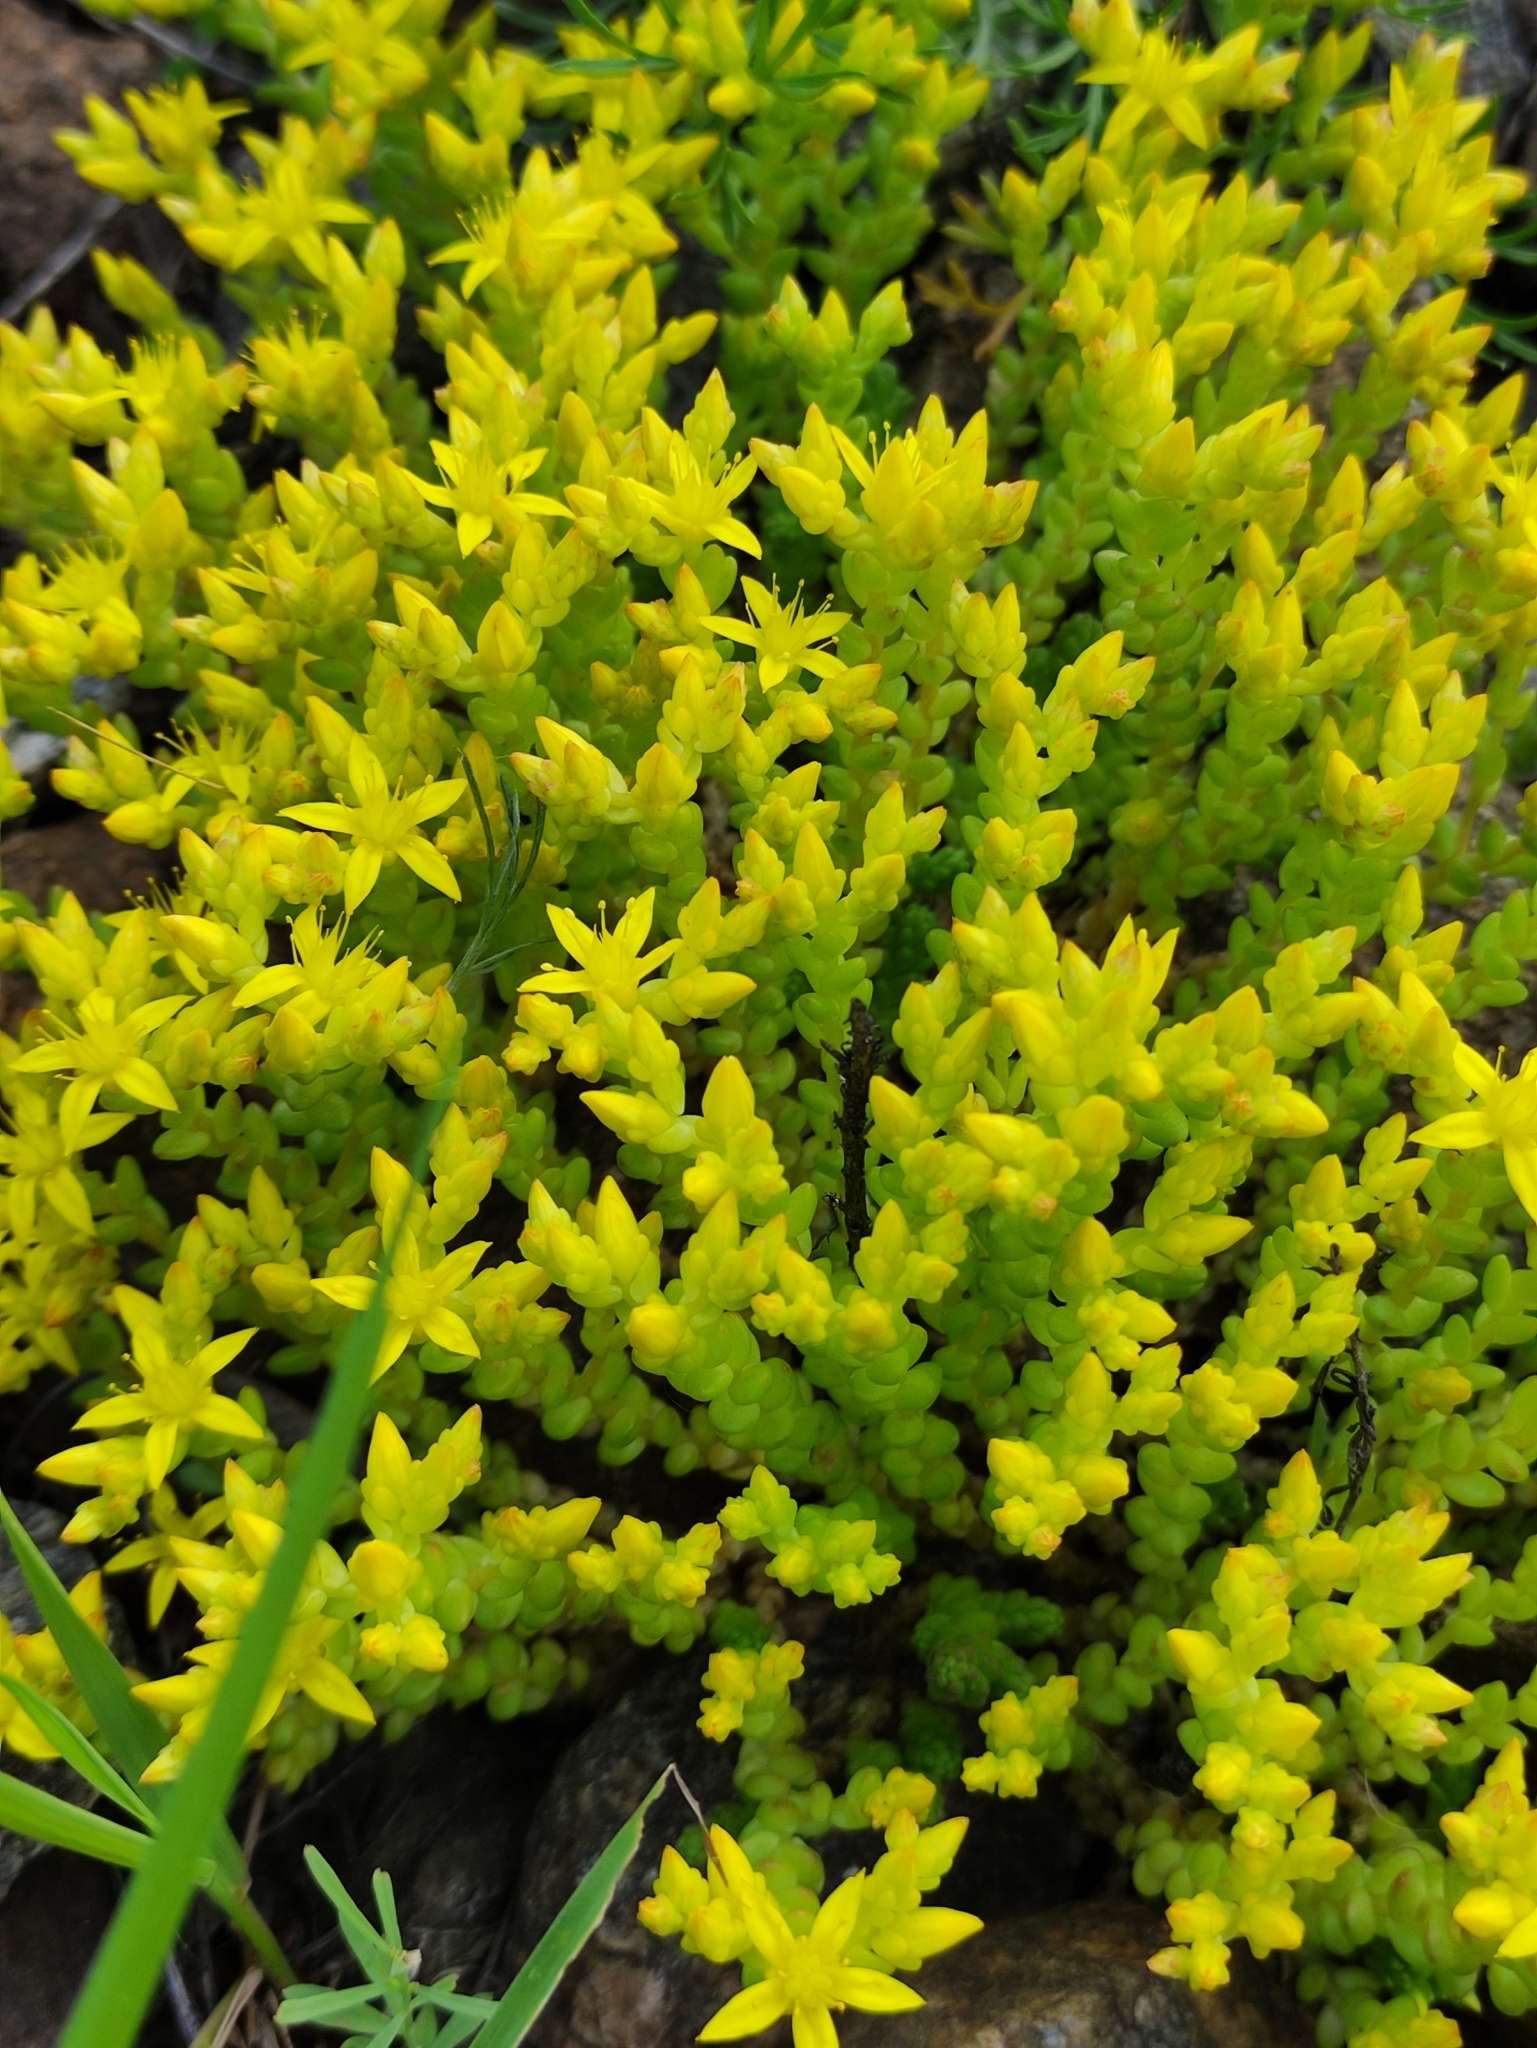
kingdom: Plantae
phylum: Tracheophyta
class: Magnoliopsida
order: Saxifragales
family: Crassulaceae
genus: Sedum
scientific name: Sedum acre
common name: Biting stonecrop
